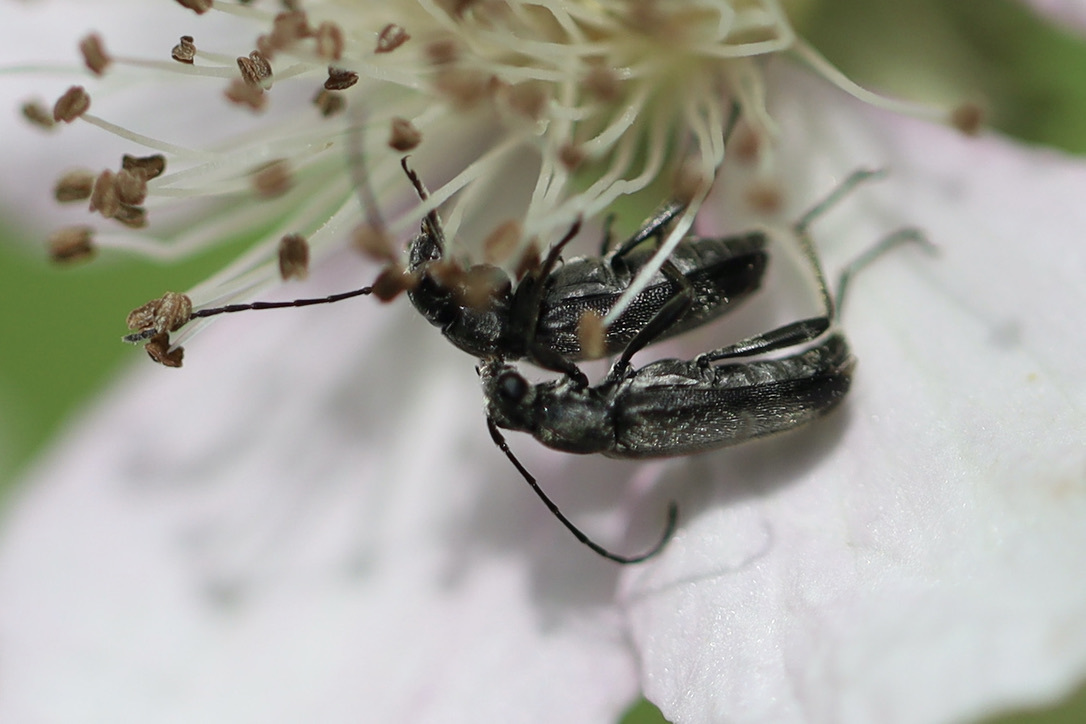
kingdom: Animalia
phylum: Arthropoda
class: Insecta
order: Coleoptera
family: Cerambycidae
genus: Grammoptera
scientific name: Grammoptera subargentata
